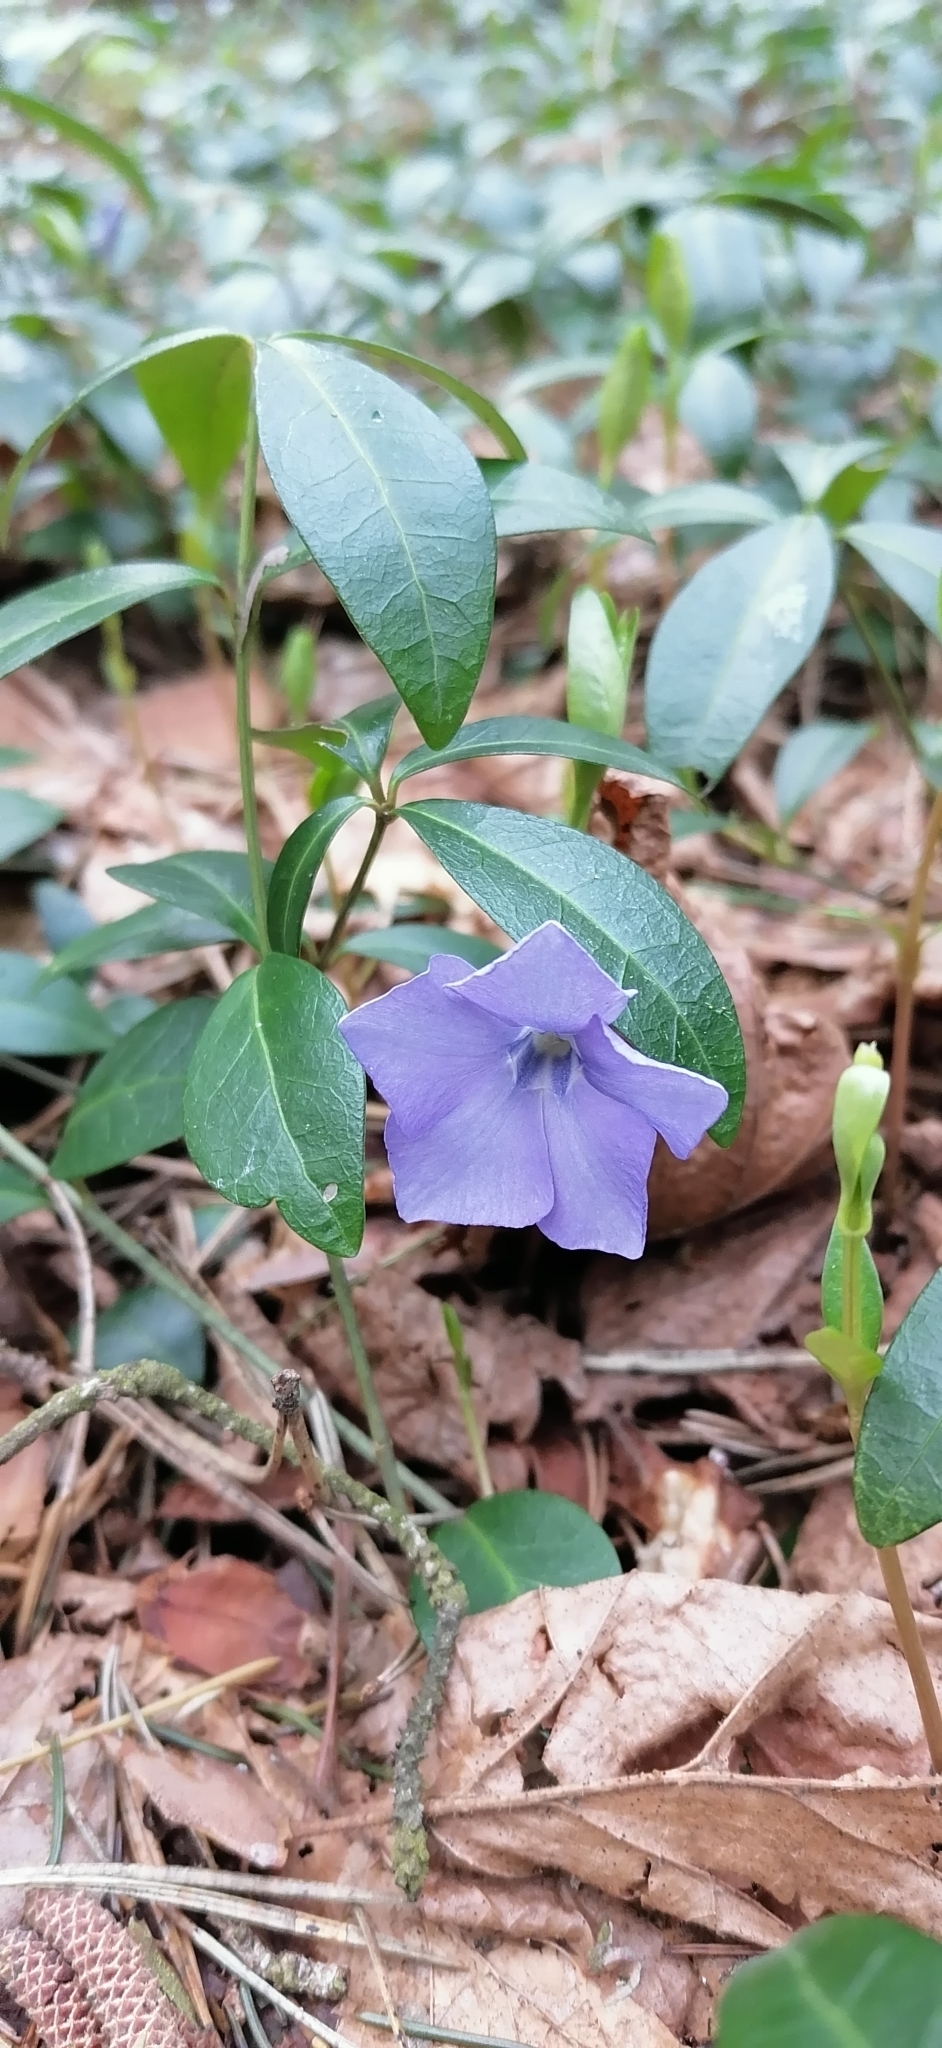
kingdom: Plantae
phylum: Tracheophyta
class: Magnoliopsida
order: Gentianales
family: Apocynaceae
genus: Vinca
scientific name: Vinca minor
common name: Lesser periwinkle
